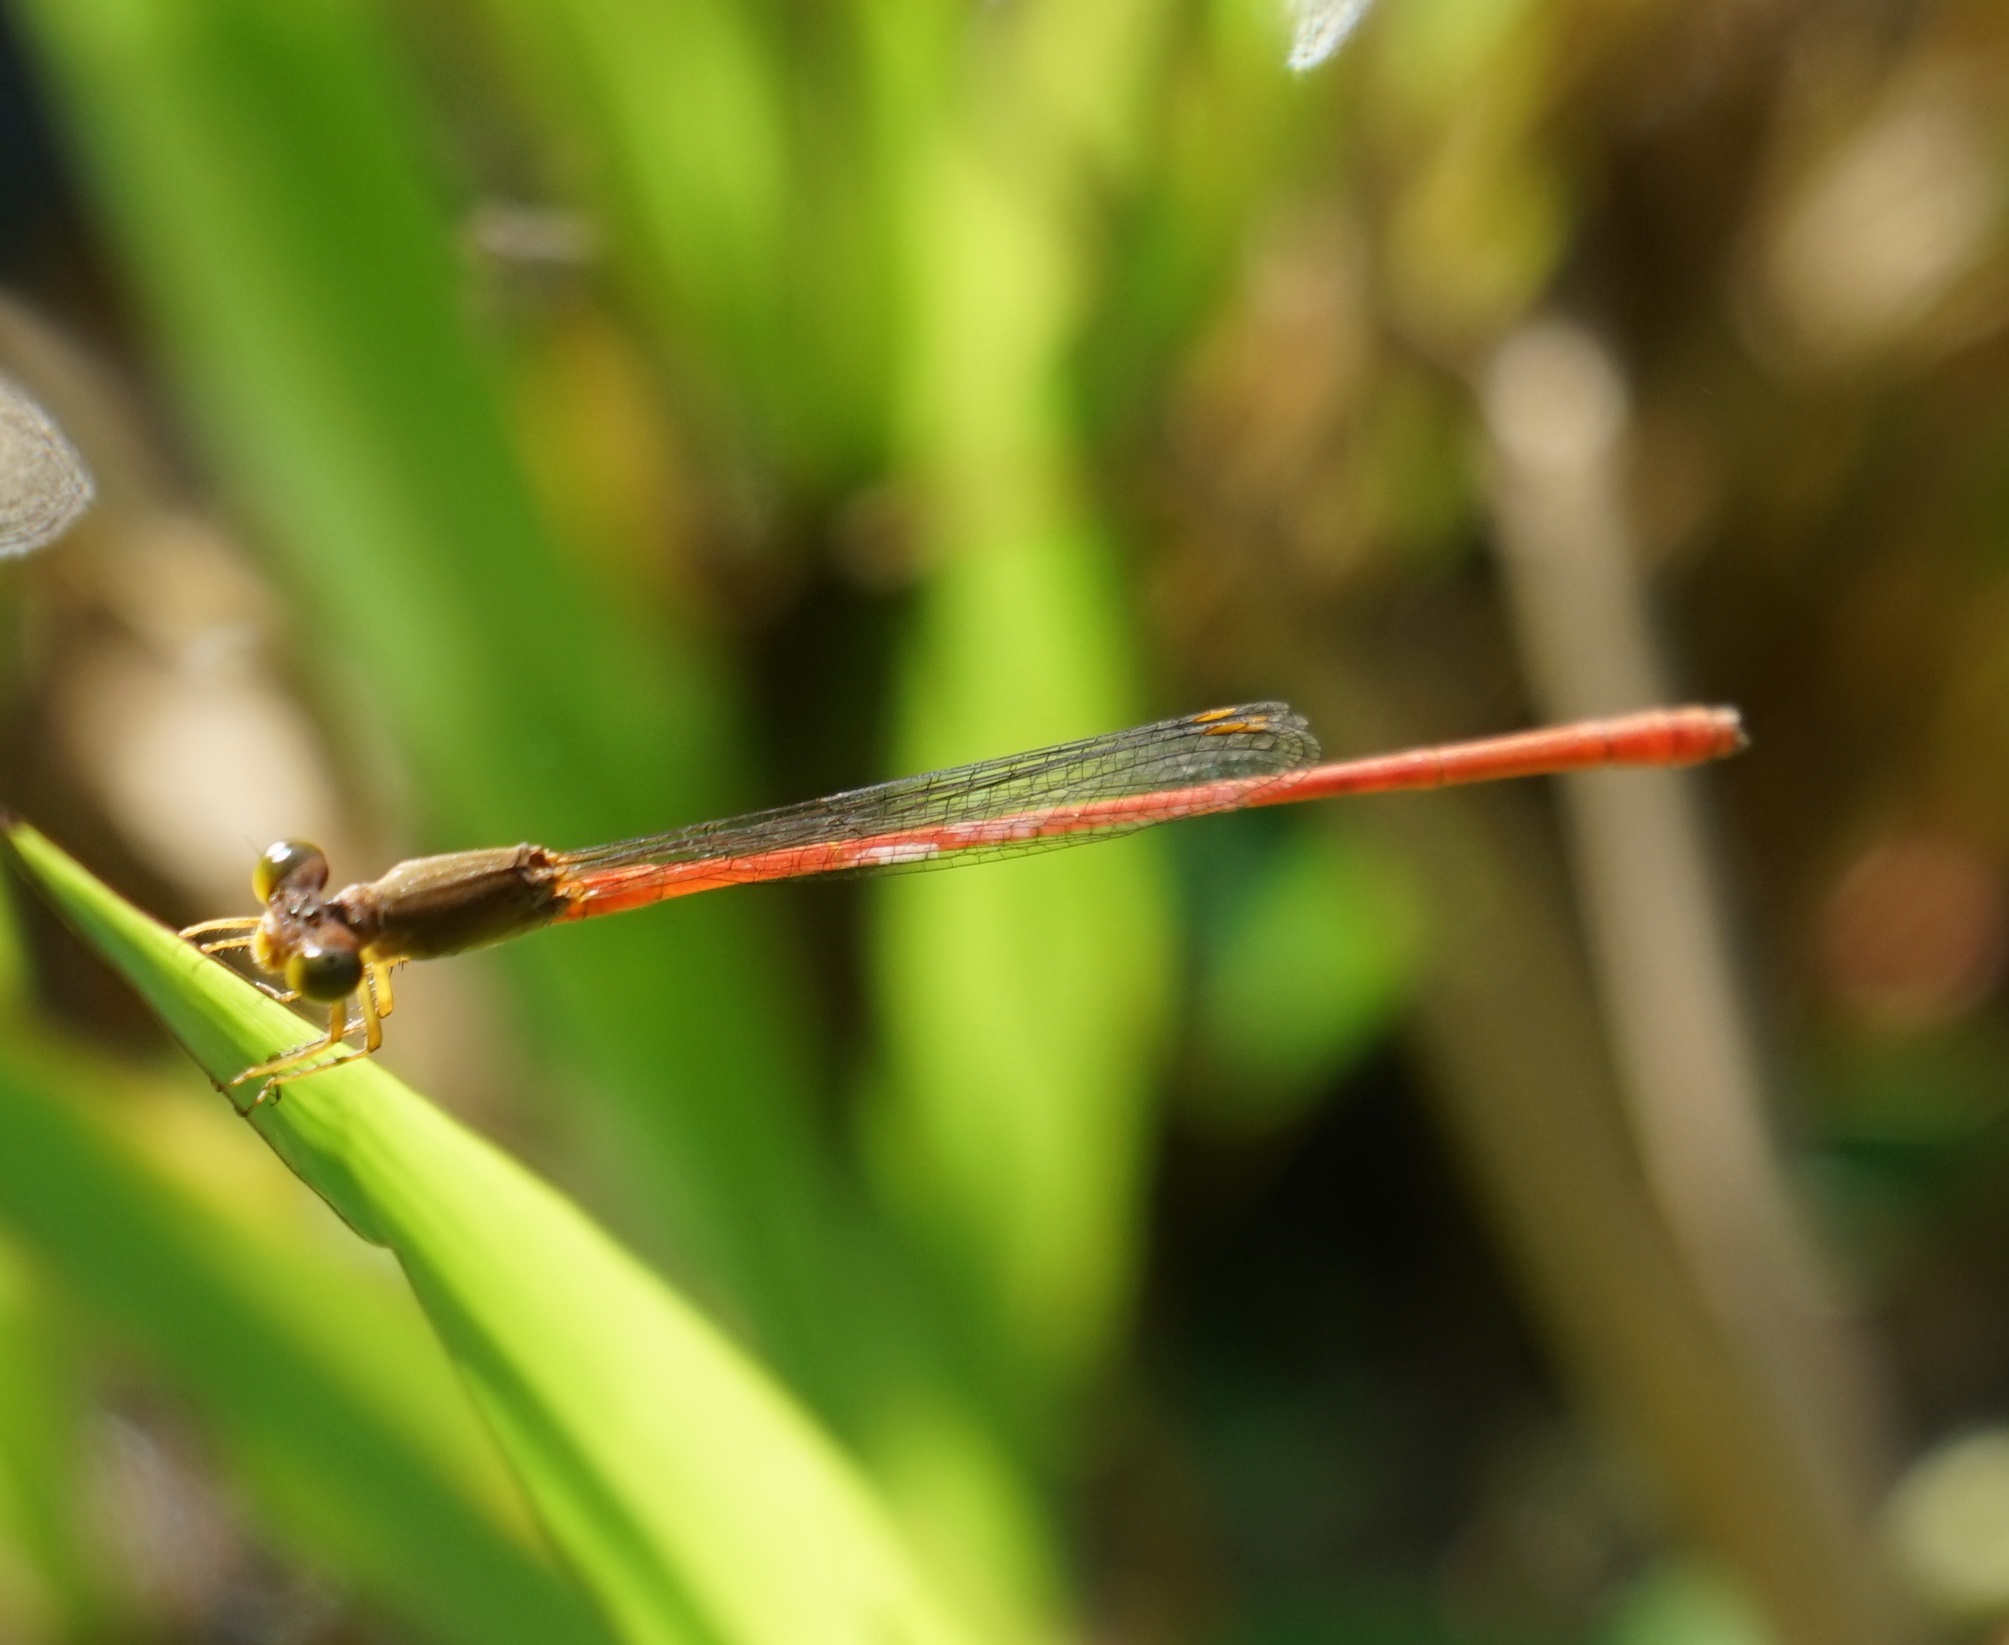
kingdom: Animalia
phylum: Arthropoda
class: Insecta
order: Odonata
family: Coenagrionidae
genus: Ceriagrion
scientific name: Ceriagrion aeruginosum
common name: Redtail
